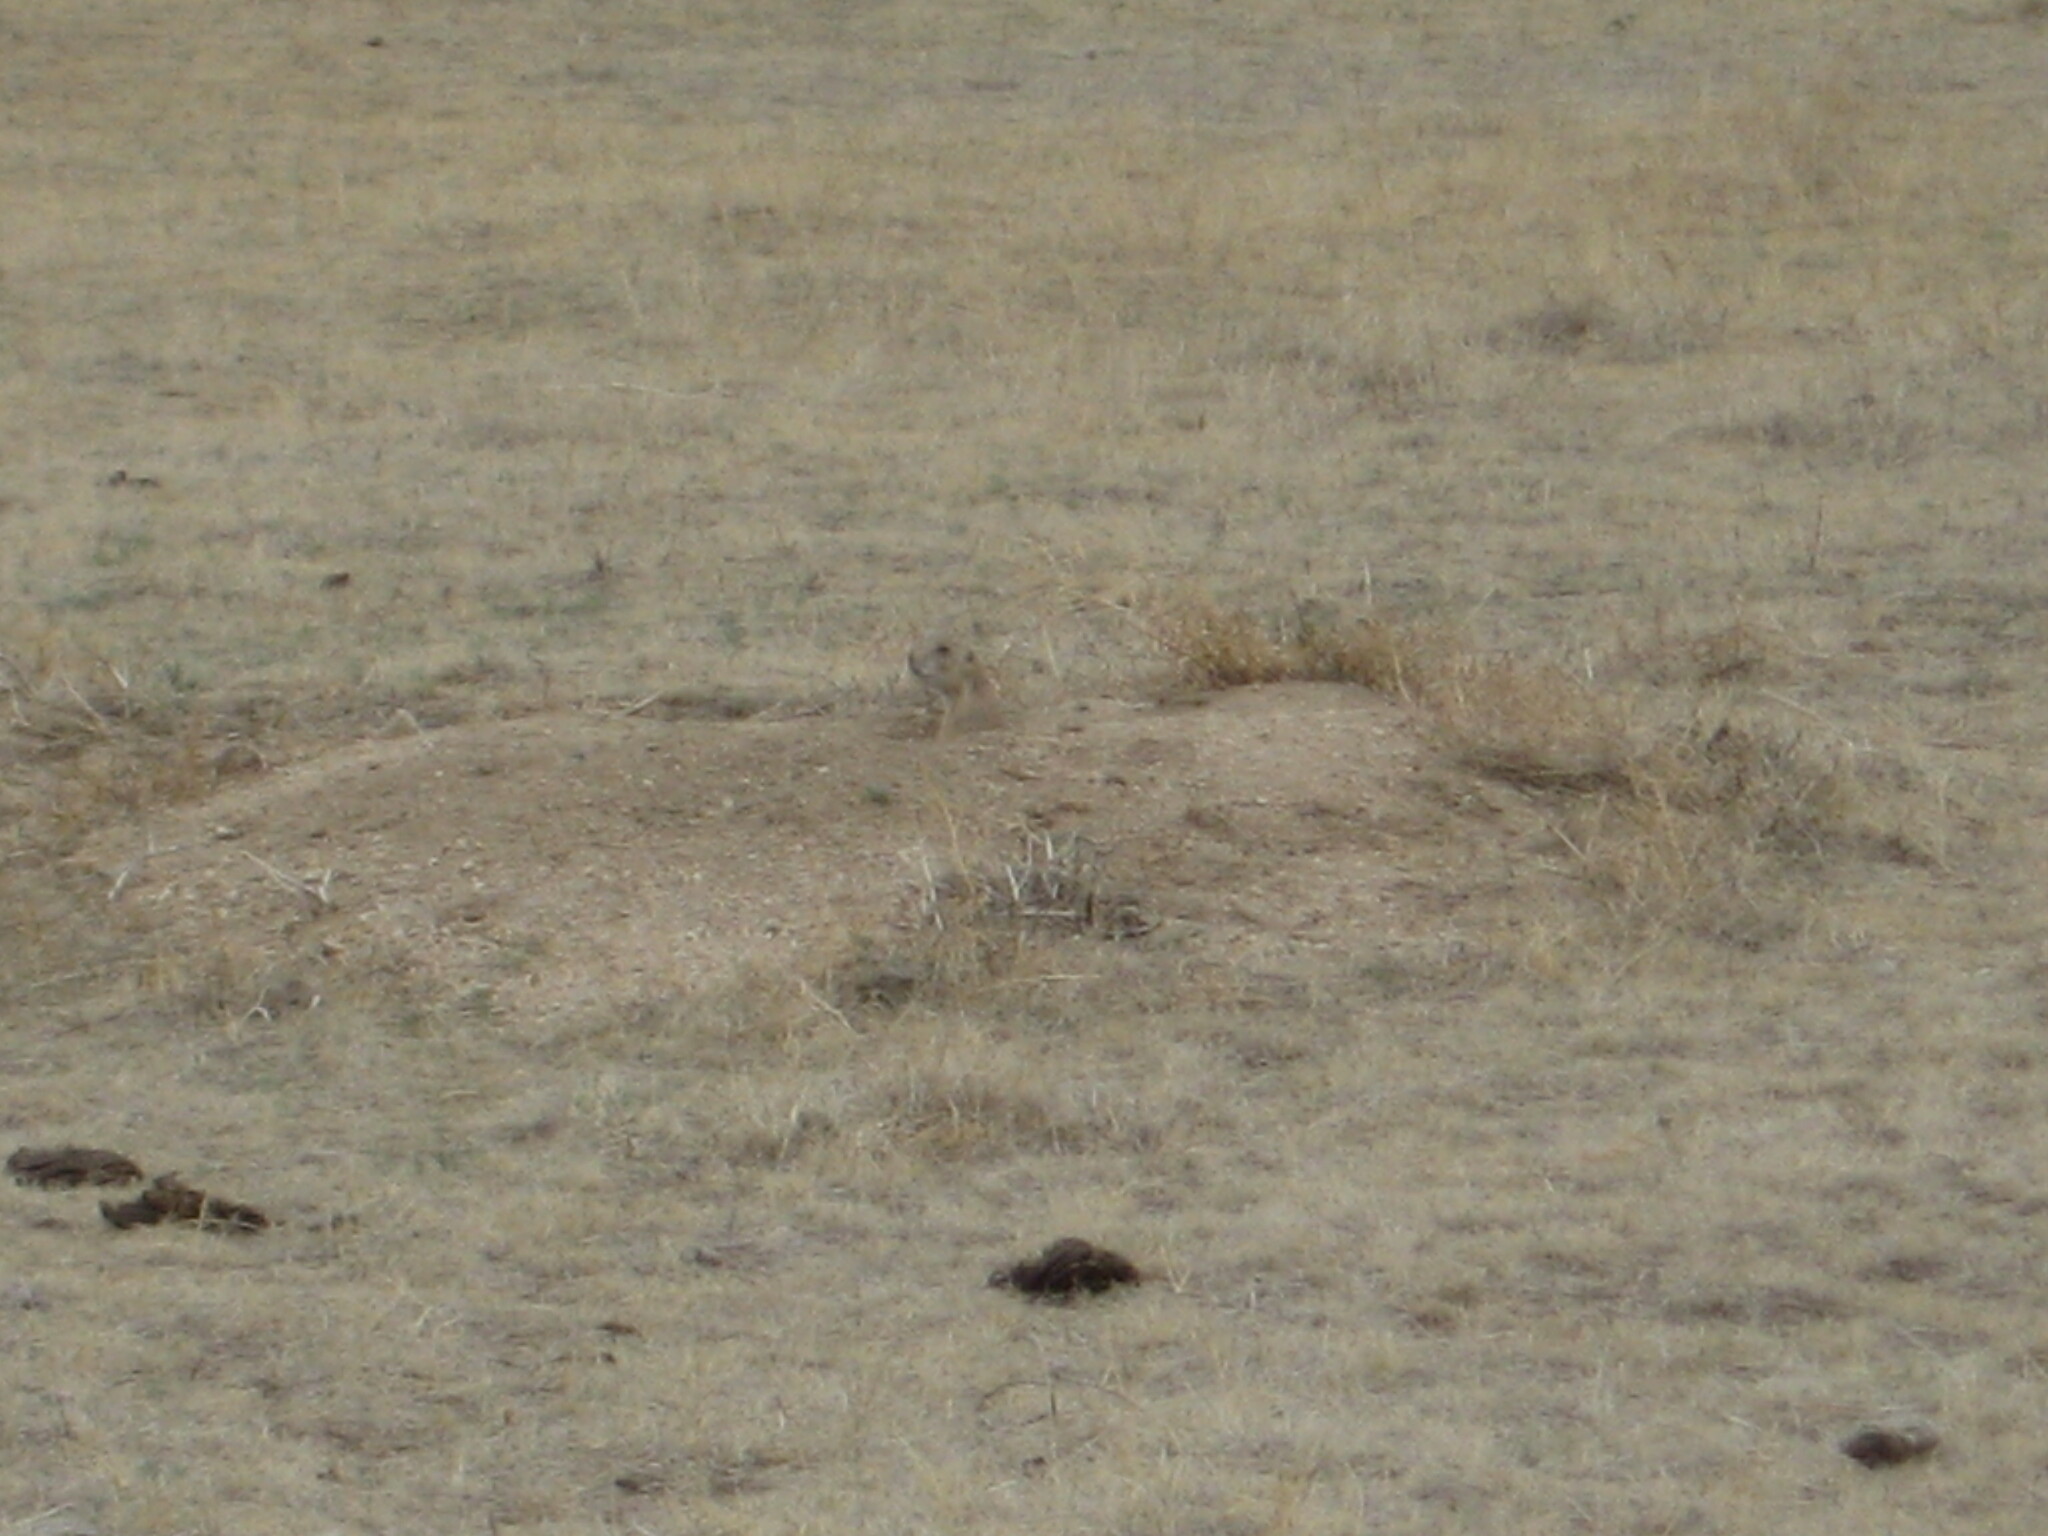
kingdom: Animalia
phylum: Chordata
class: Mammalia
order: Rodentia
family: Sciuridae
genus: Cynomys
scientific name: Cynomys ludovicianus
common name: Black-tailed prairie dog
